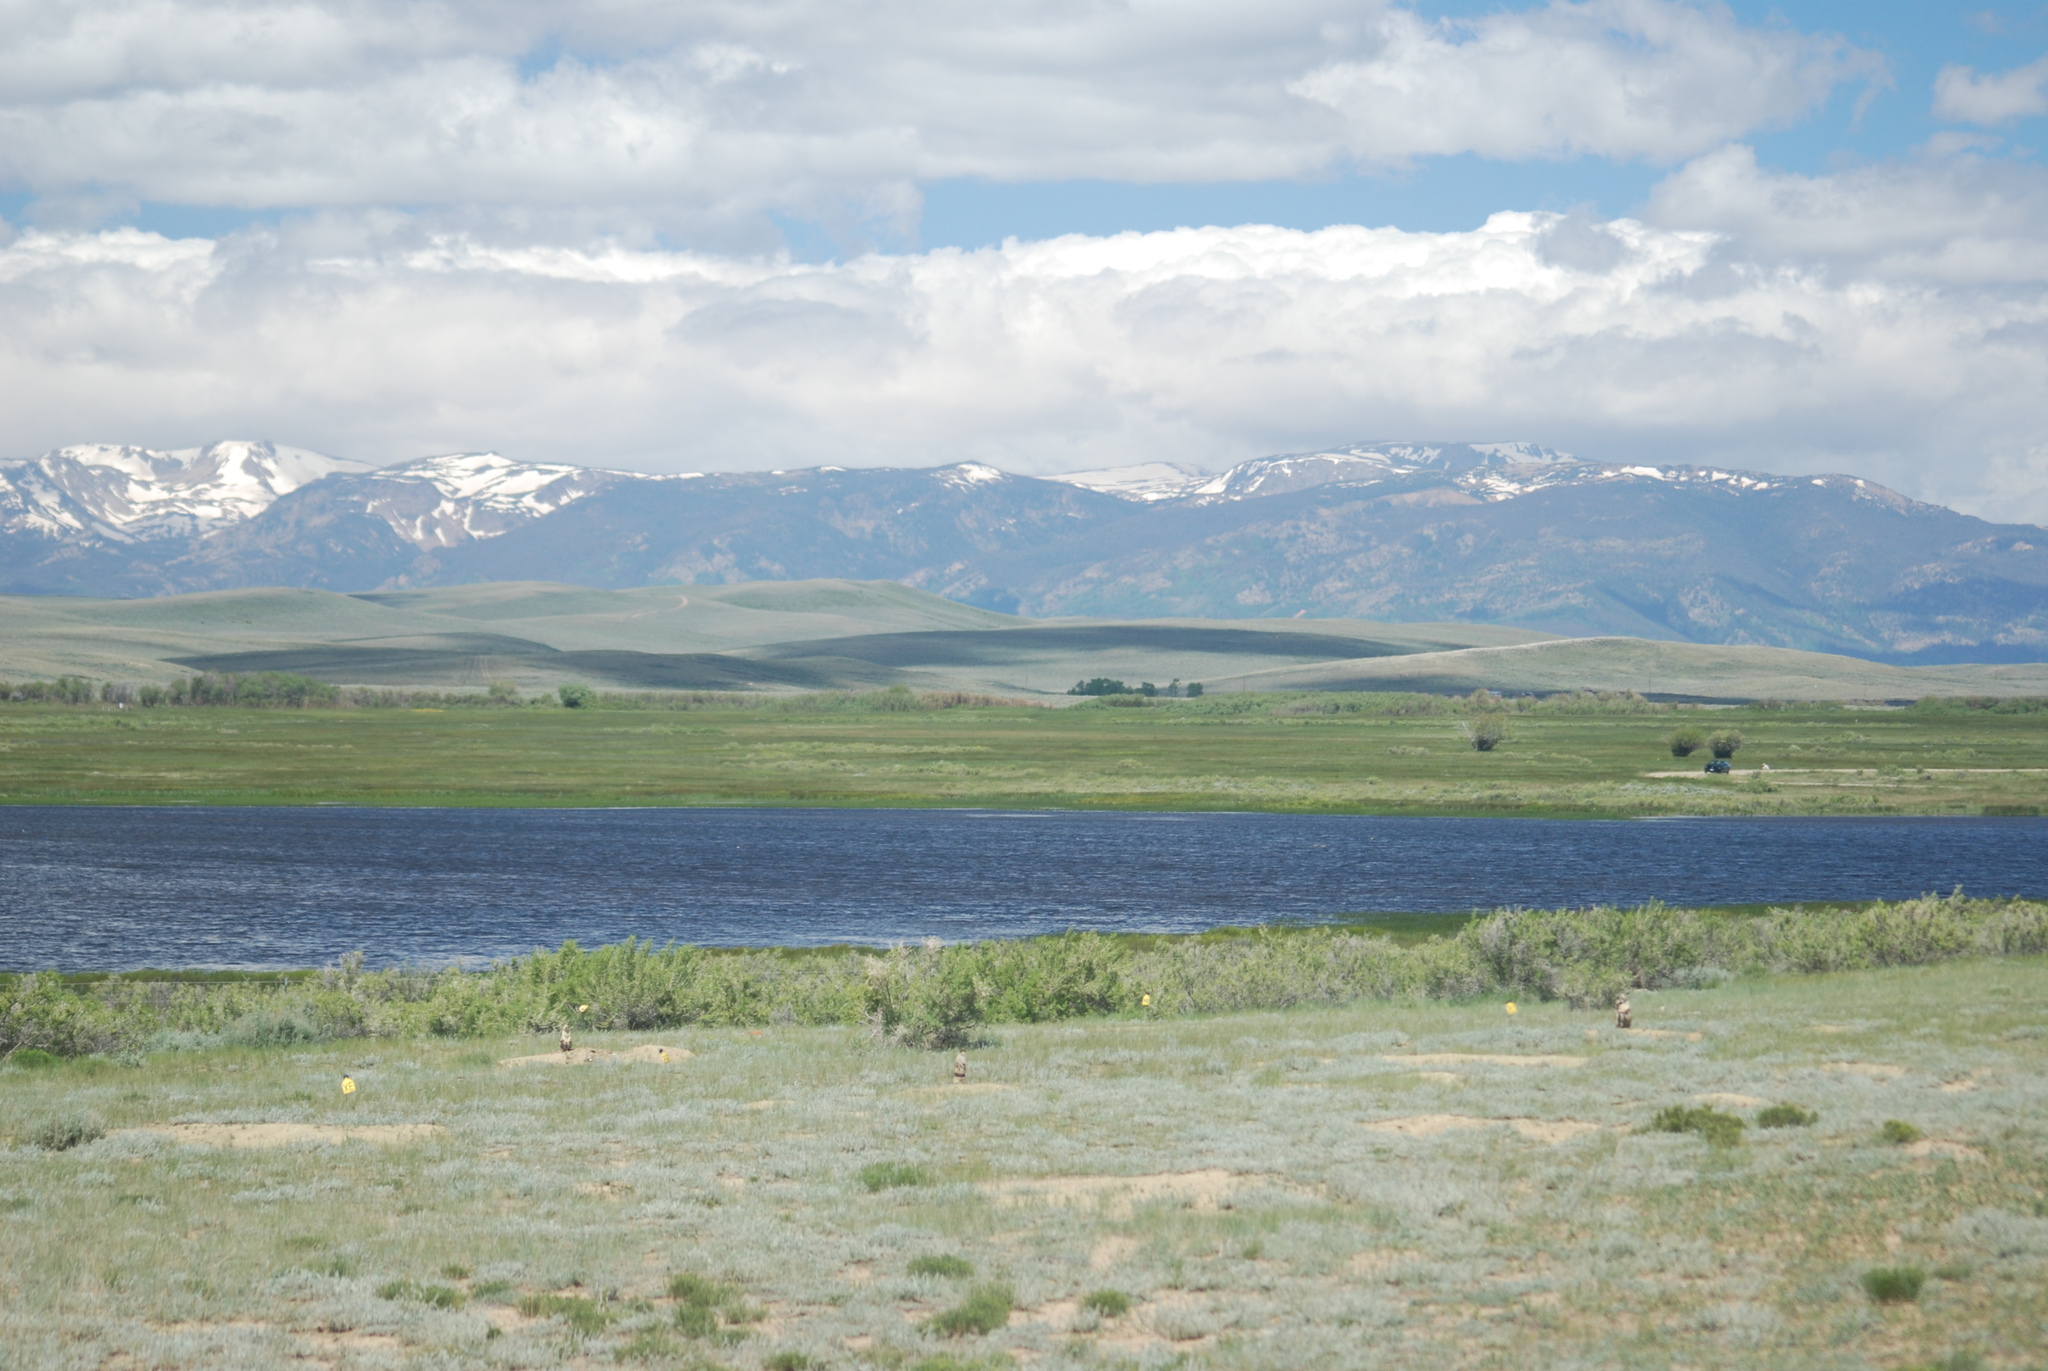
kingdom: Animalia
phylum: Chordata
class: Mammalia
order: Rodentia
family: Sciuridae
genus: Cynomys
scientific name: Cynomys leucurus
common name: White-tailed prairie dog
